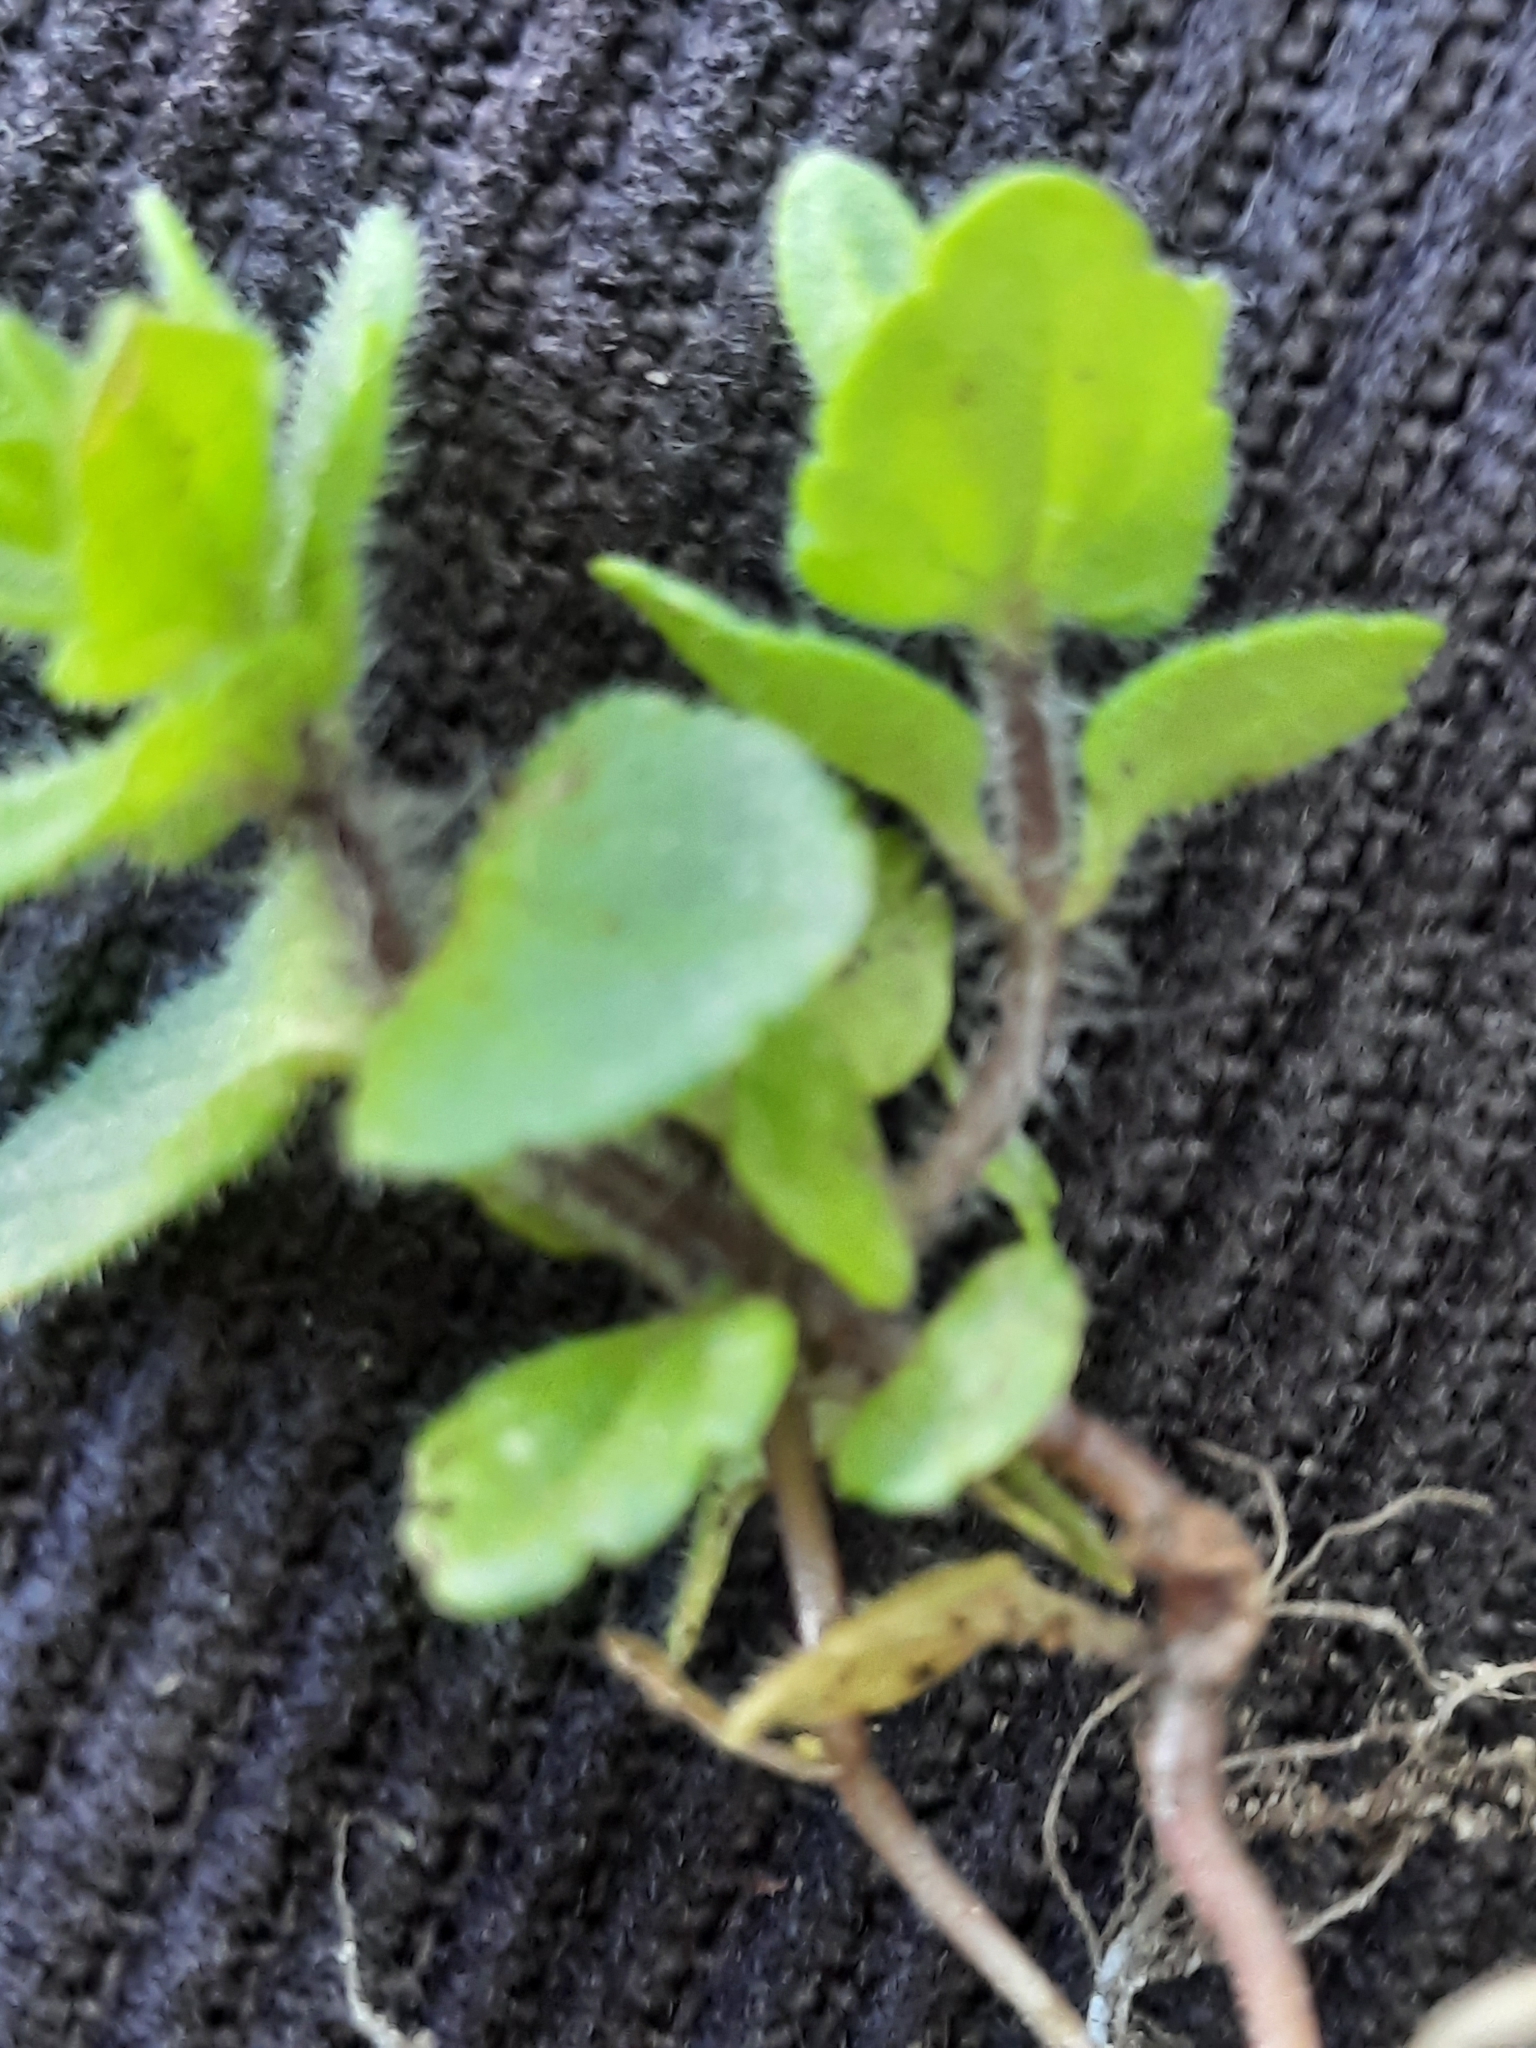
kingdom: Plantae
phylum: Tracheophyta
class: Magnoliopsida
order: Lamiales
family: Plantaginaceae
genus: Veronica
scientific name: Veronica arvensis
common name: Corn speedwell
